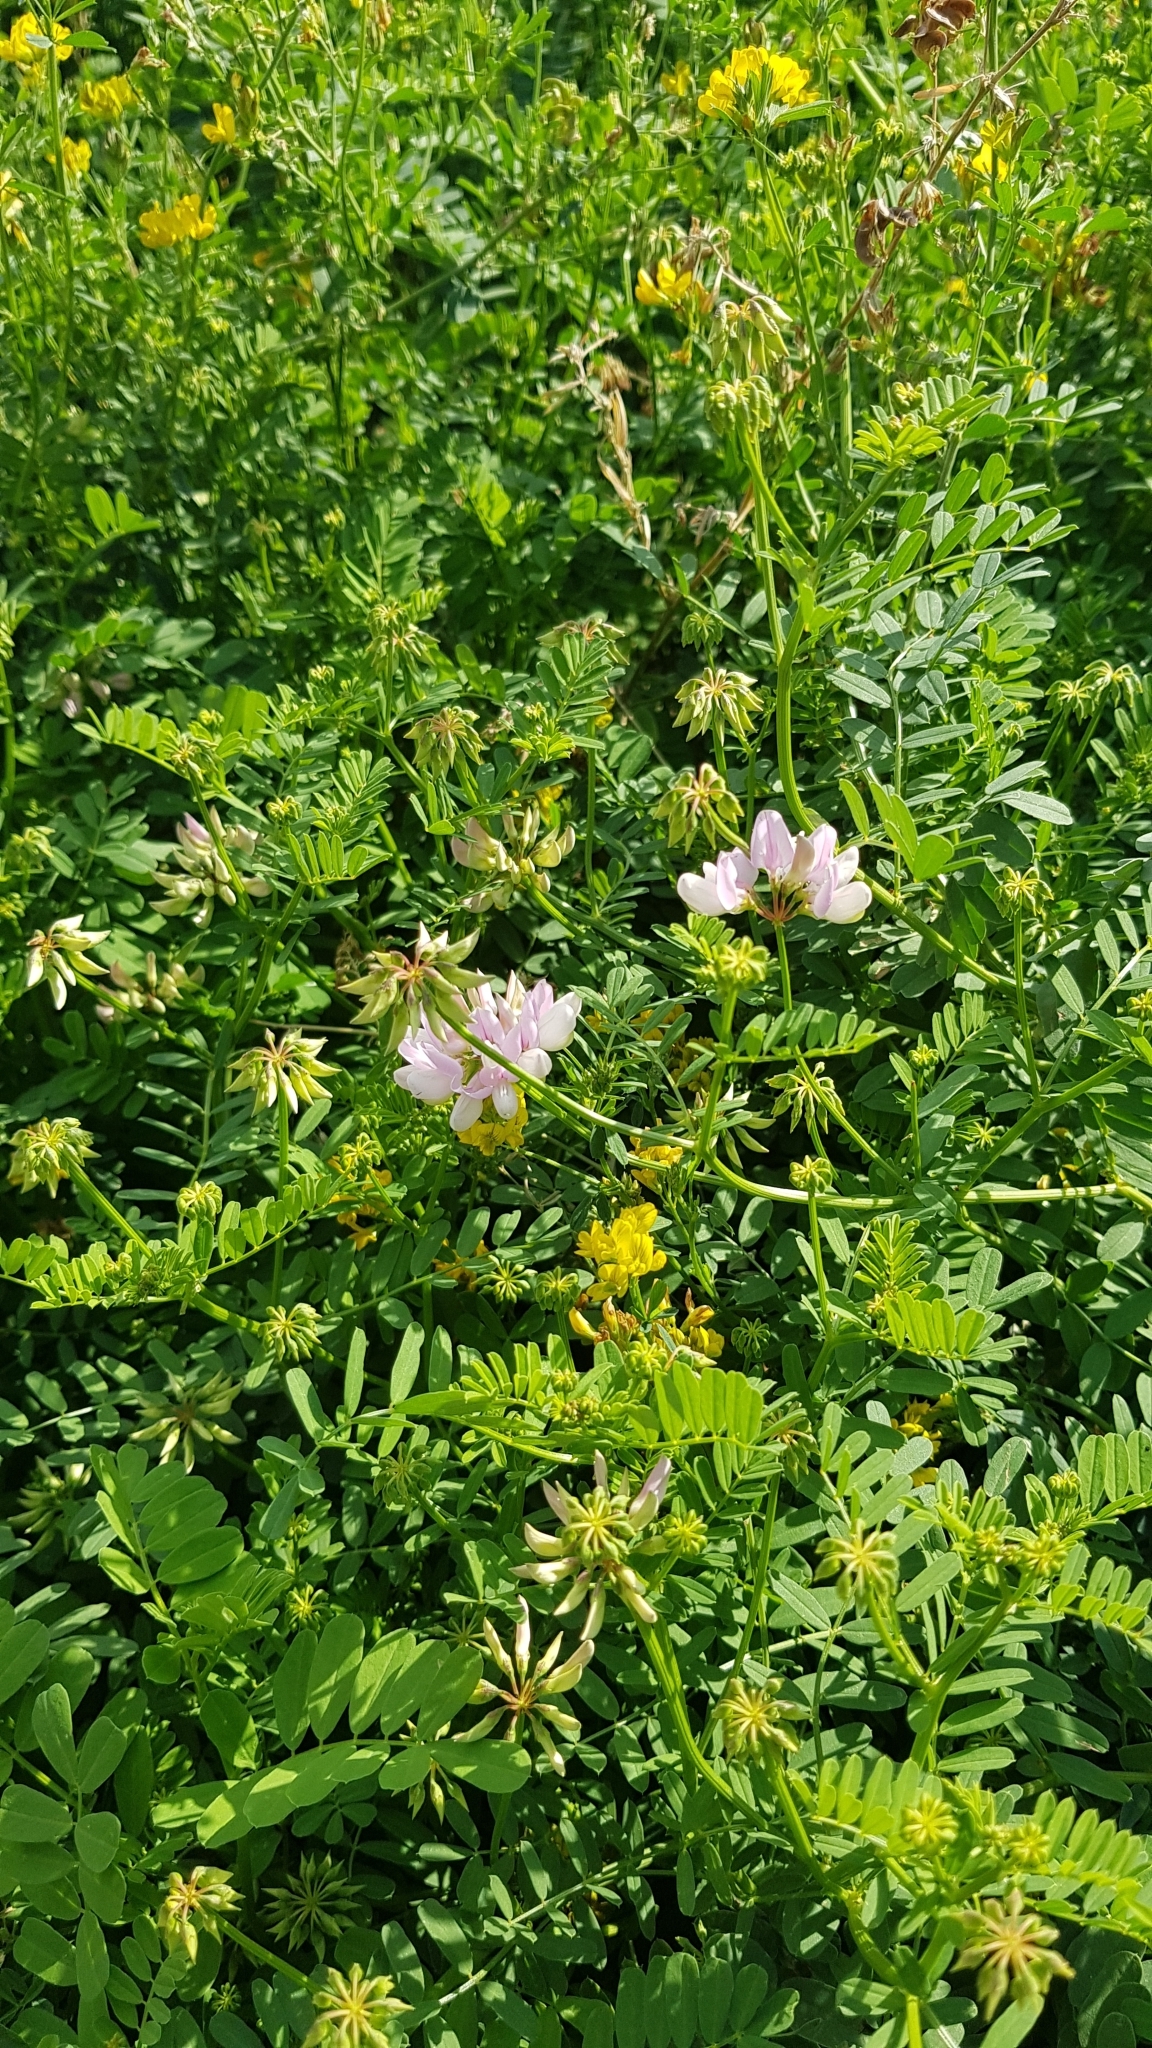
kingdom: Plantae
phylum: Tracheophyta
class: Magnoliopsida
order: Fabales
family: Fabaceae
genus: Coronilla
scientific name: Coronilla varia
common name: Crownvetch
